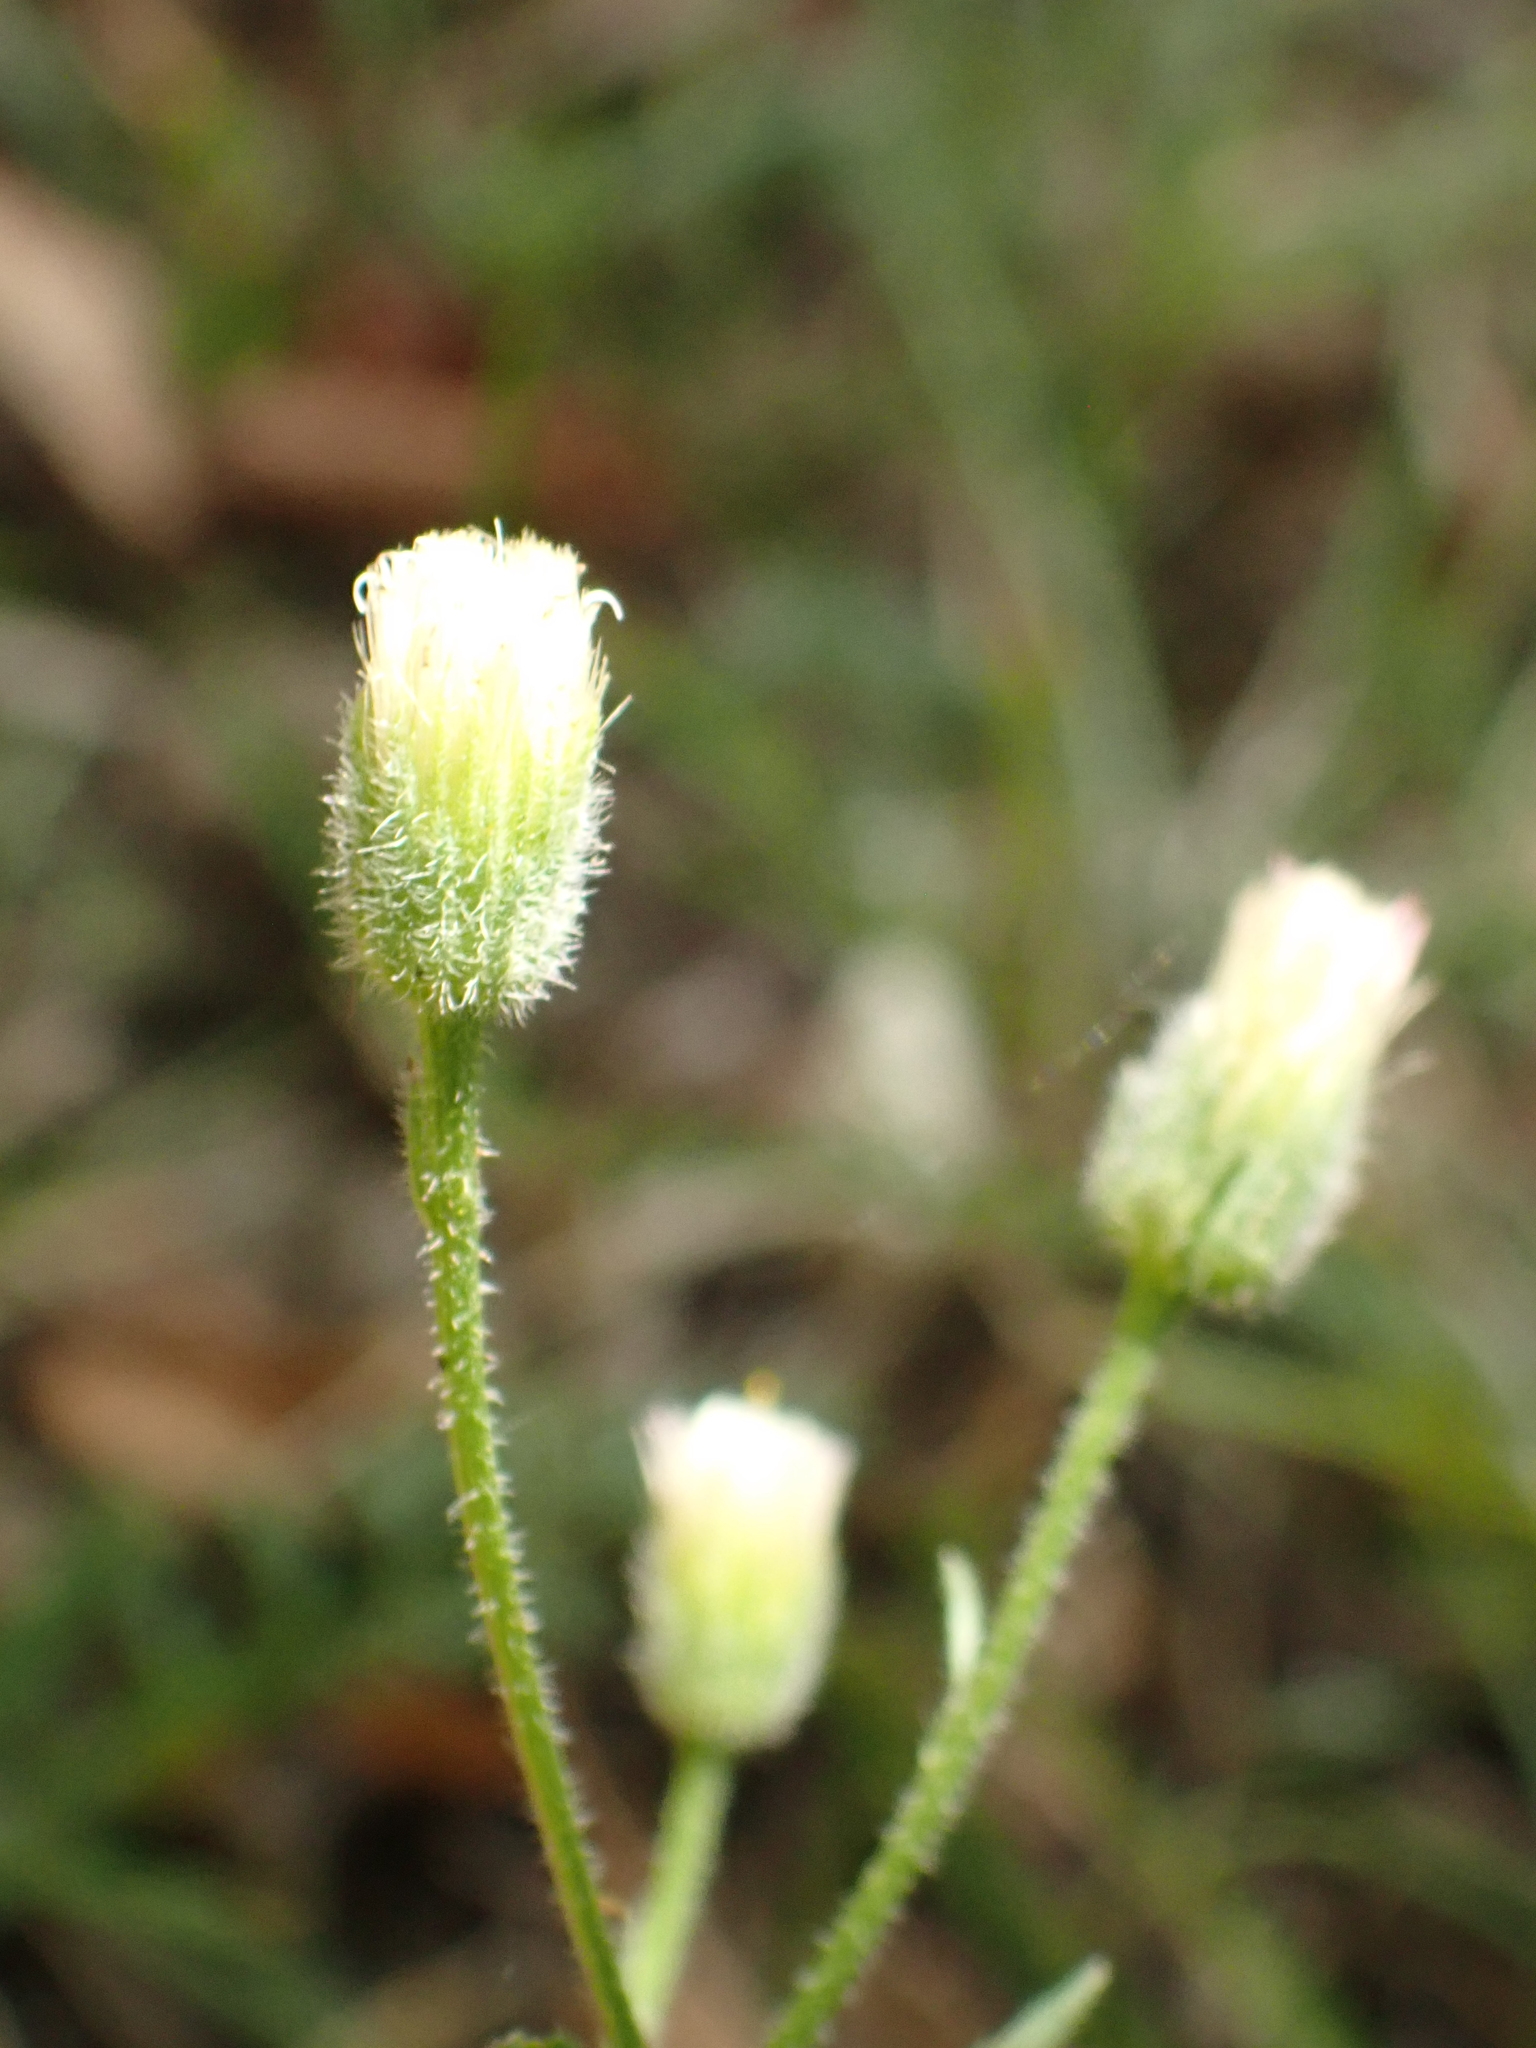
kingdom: Plantae
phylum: Tracheophyta
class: Magnoliopsida
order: Asterales
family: Asteraceae
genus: Erigeron
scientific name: Erigeron acris
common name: Blue fleabane
